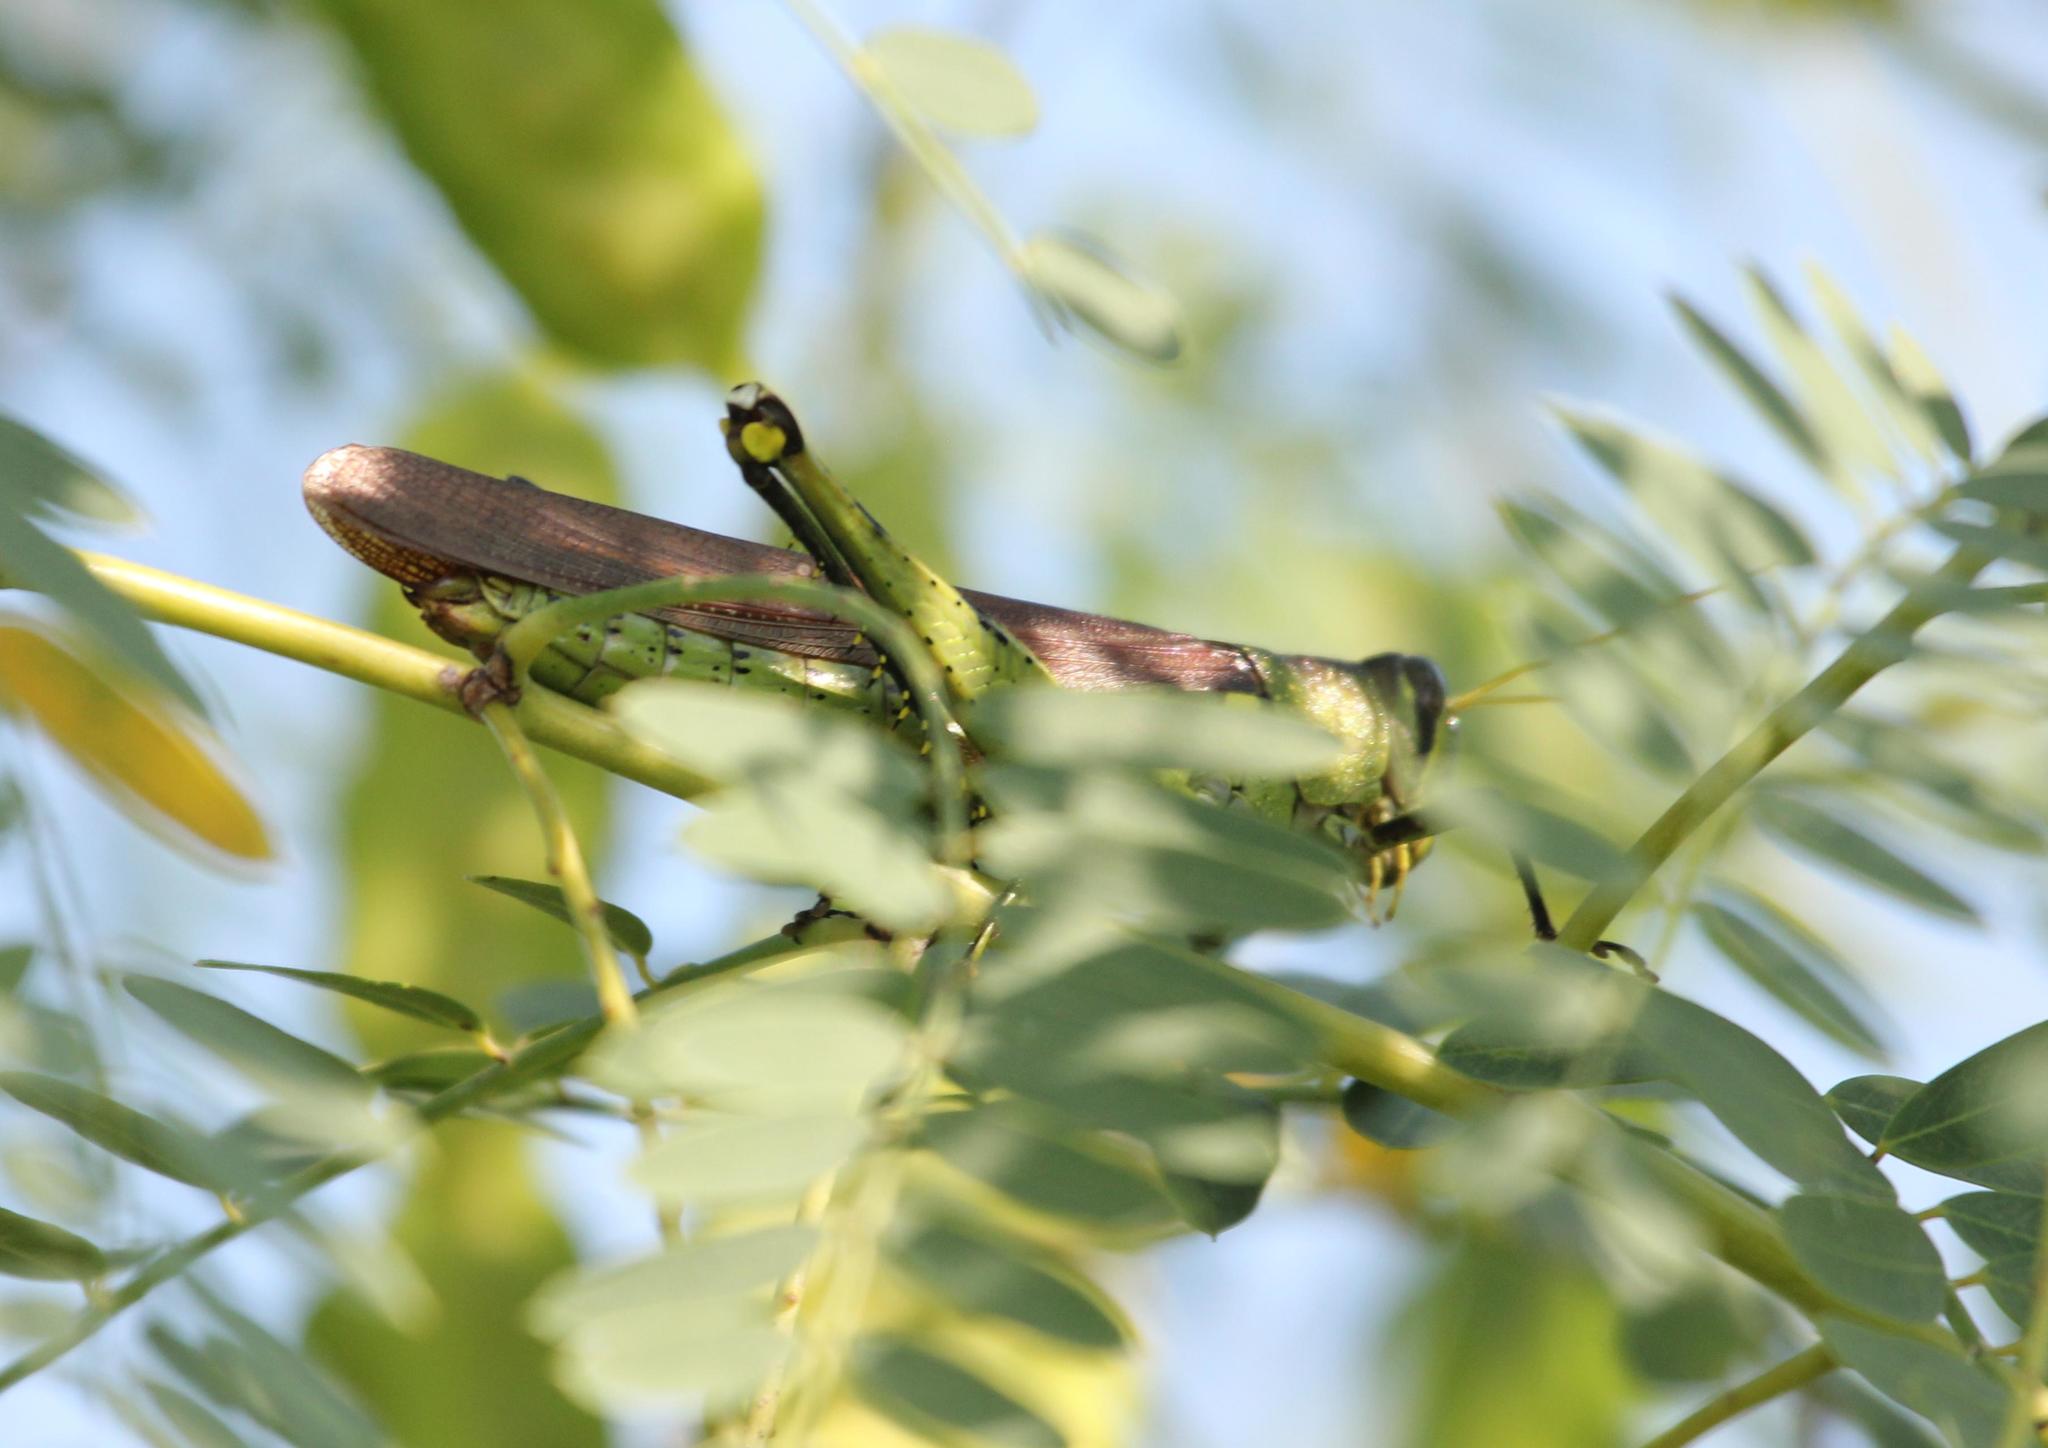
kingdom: Animalia
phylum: Arthropoda
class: Insecta
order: Orthoptera
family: Acrididae
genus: Schistocerca
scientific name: Schistocerca obscura
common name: Obscure bird grasshopper
